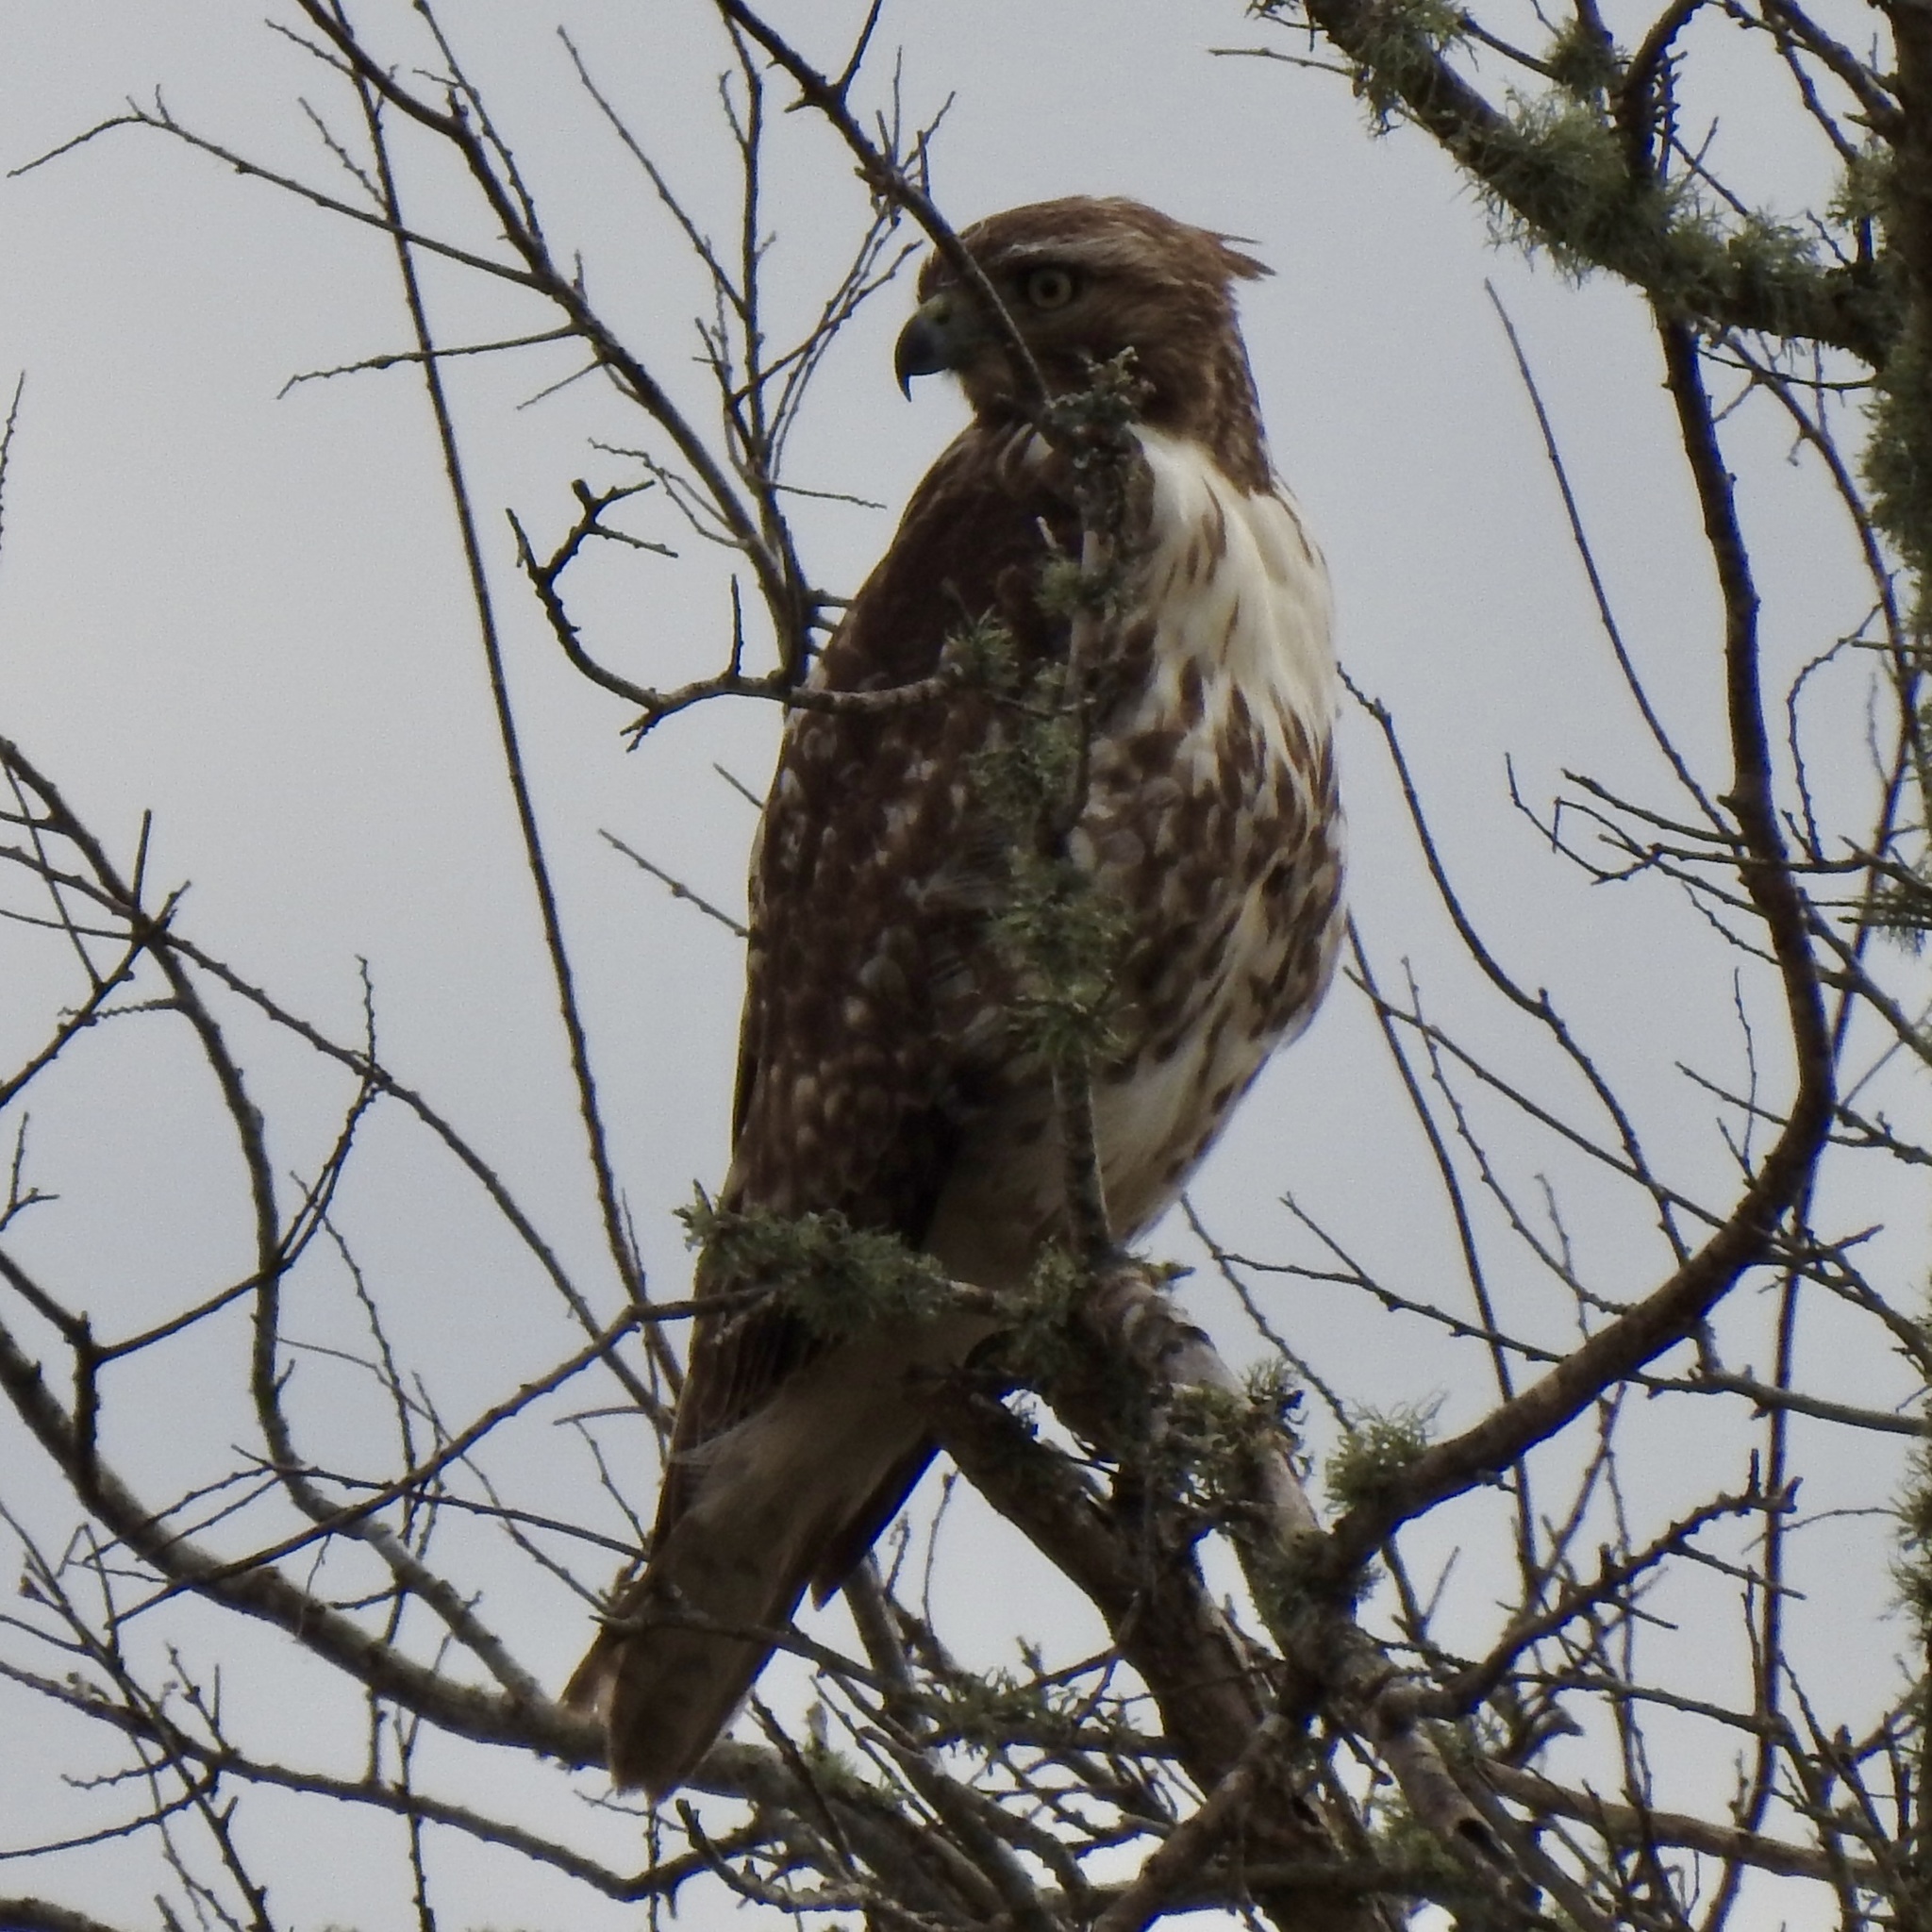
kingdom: Animalia
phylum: Chordata
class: Aves
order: Accipitriformes
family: Accipitridae
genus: Buteo
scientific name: Buteo jamaicensis
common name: Red-tailed hawk
